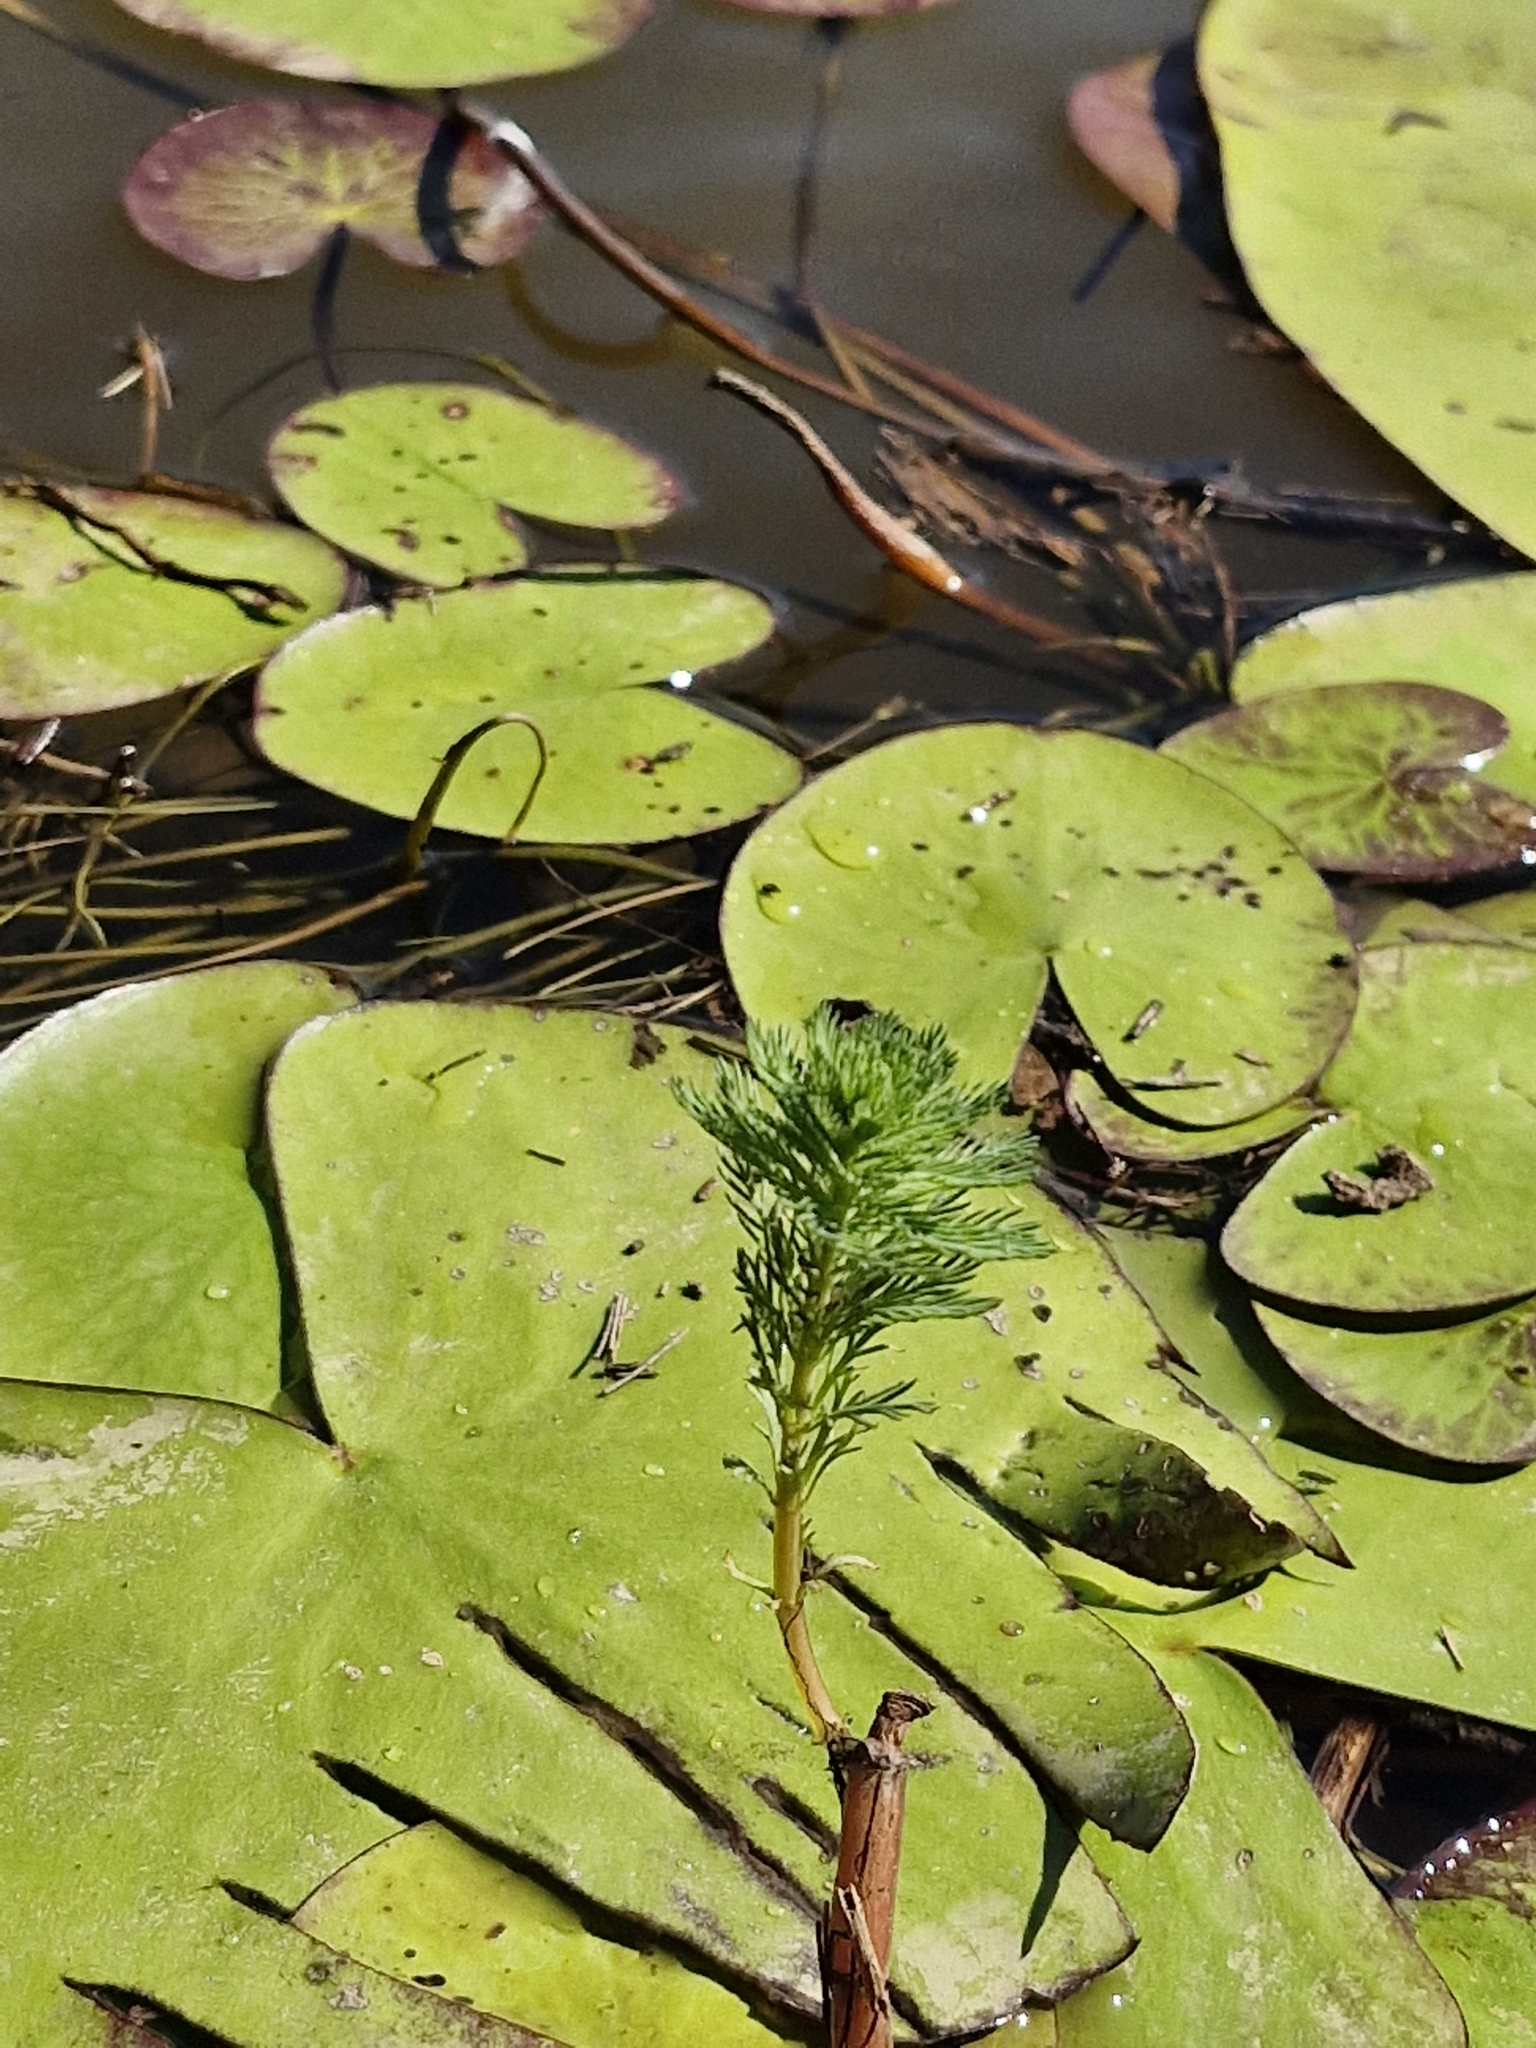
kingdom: Plantae
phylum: Tracheophyta
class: Magnoliopsida
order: Saxifragales
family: Haloragaceae
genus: Myriophyllum
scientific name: Myriophyllum aquaticum
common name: Parrot's feather
